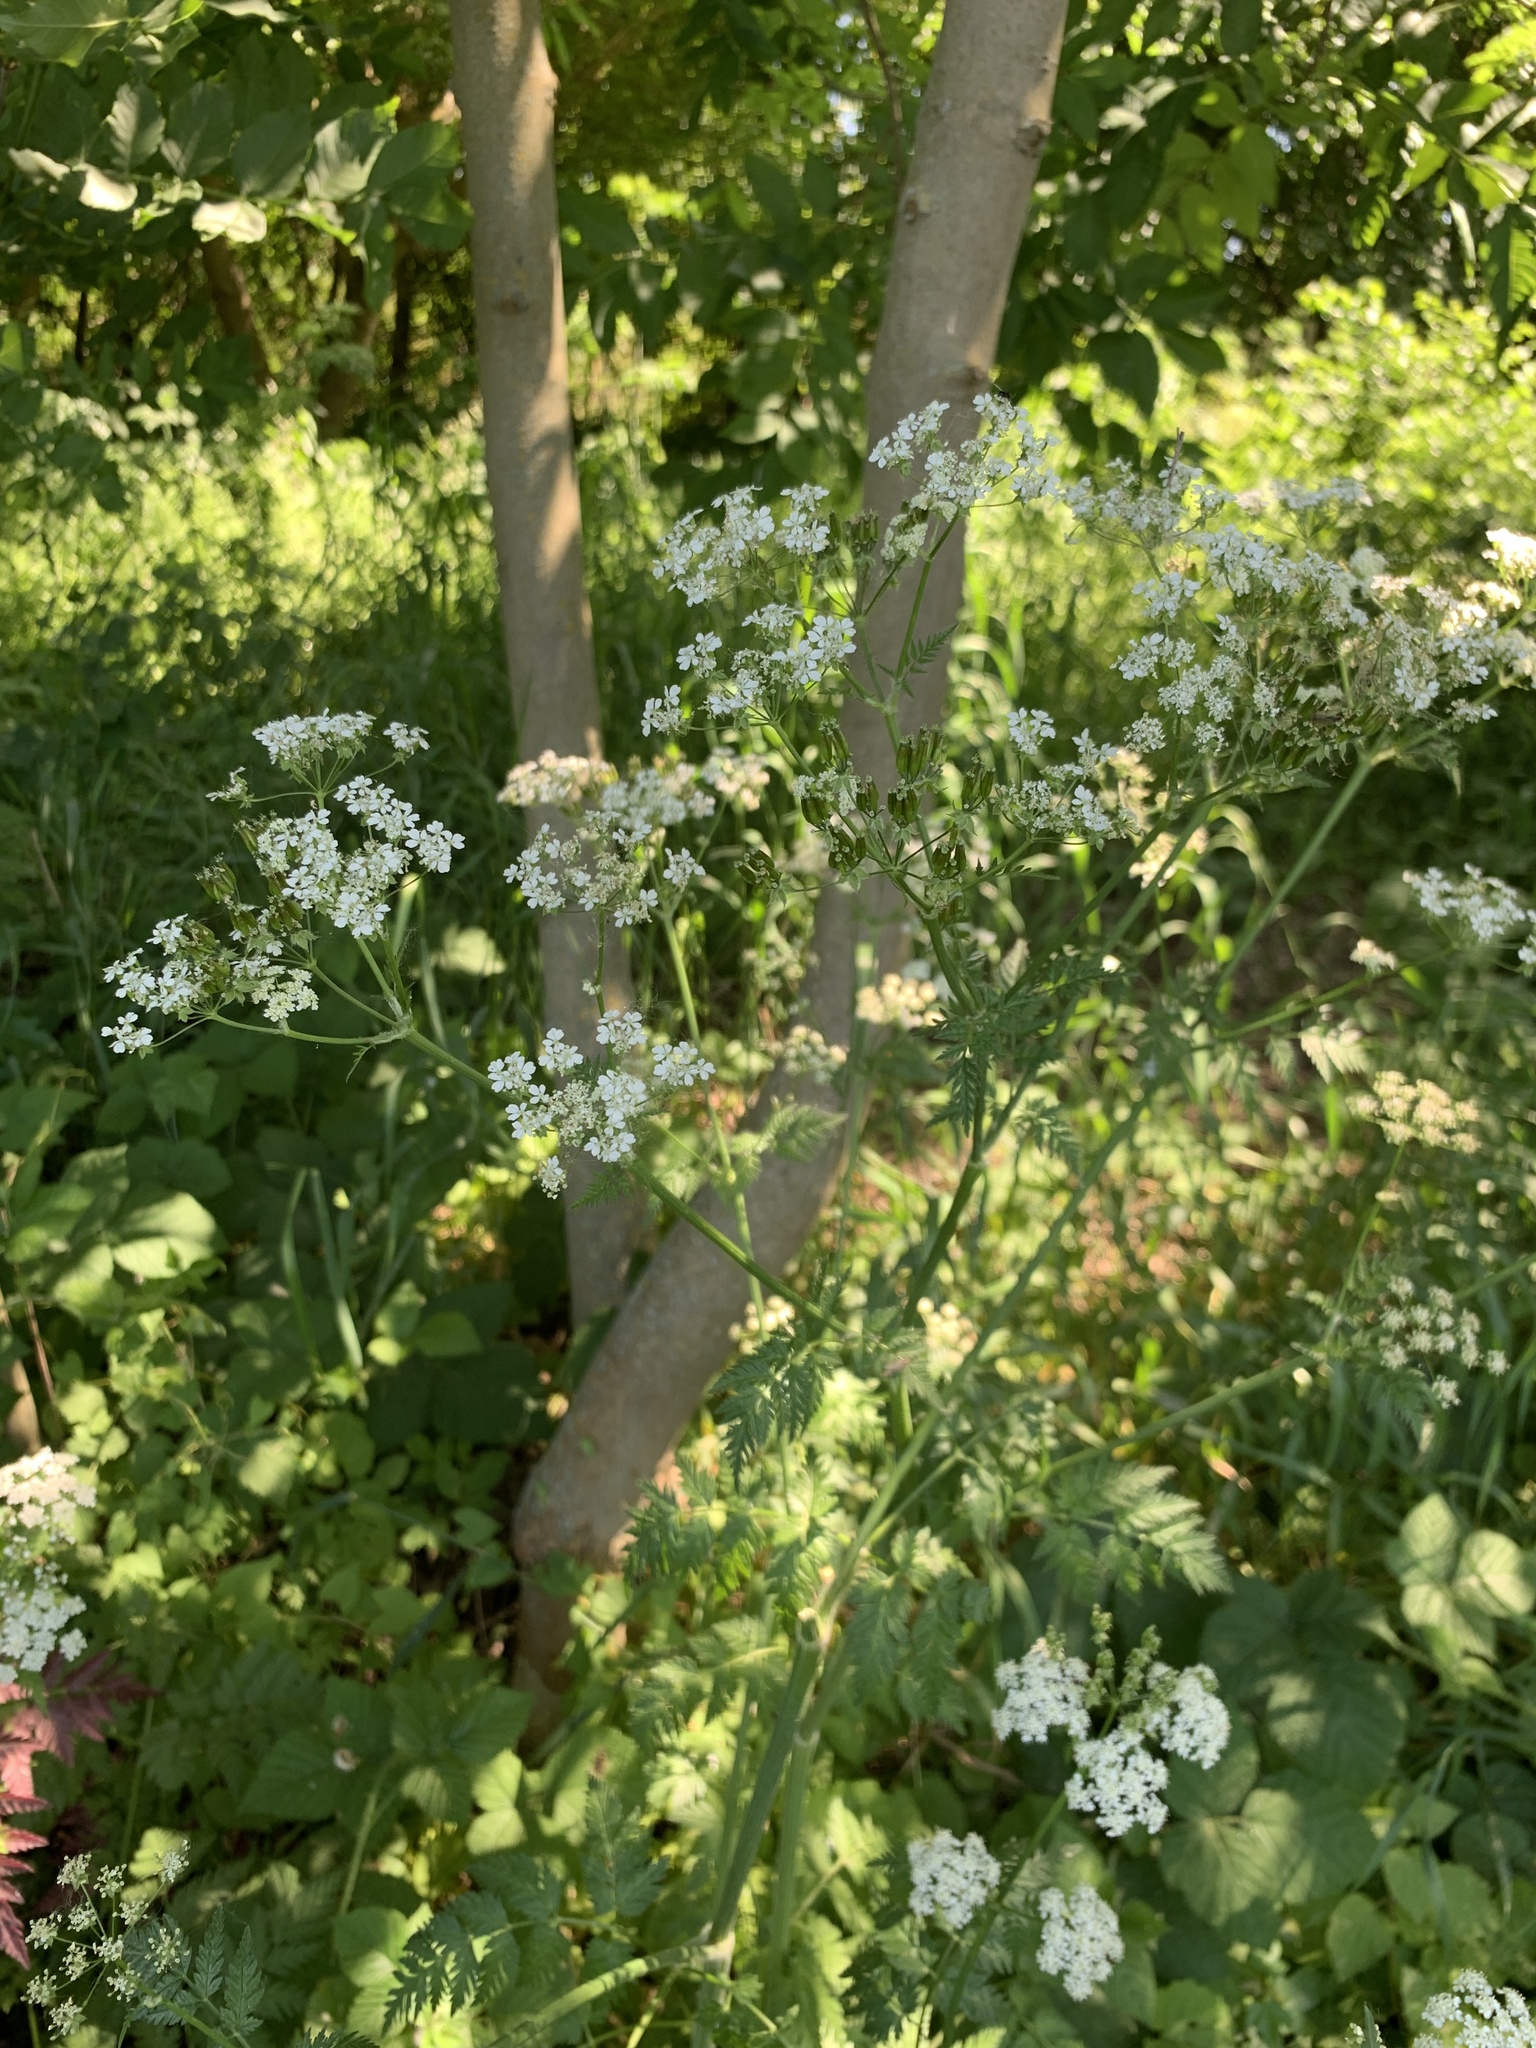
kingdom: Plantae
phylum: Tracheophyta
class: Magnoliopsida
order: Apiales
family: Apiaceae
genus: Anthriscus
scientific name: Anthriscus sylvestris
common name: Cow parsley
